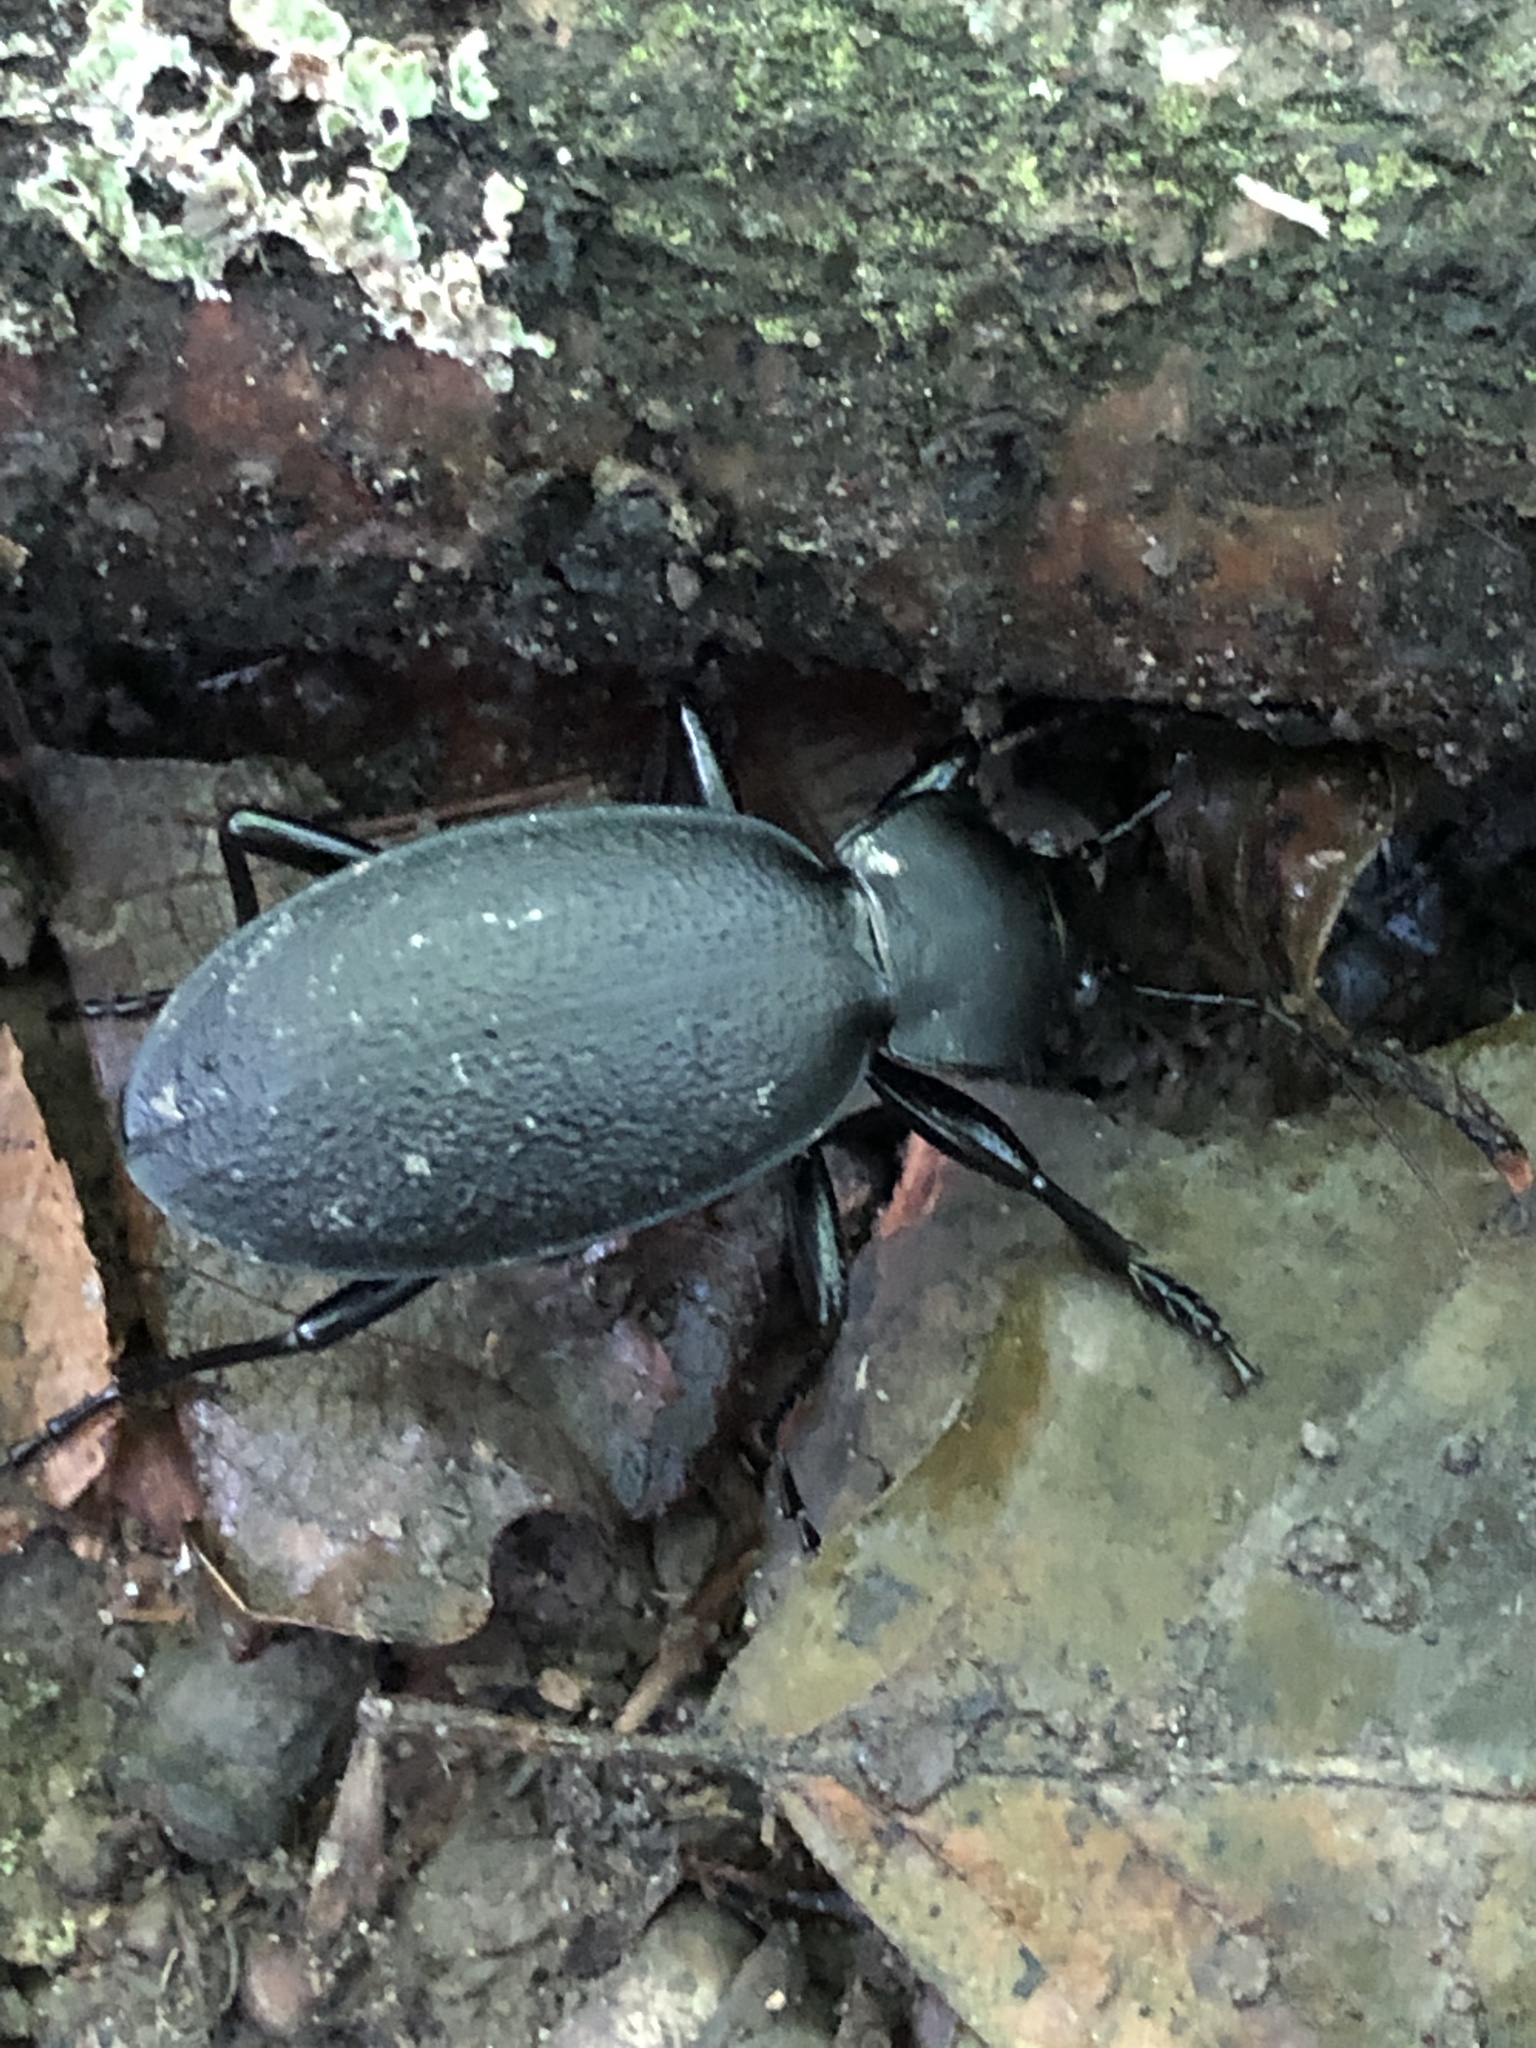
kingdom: Animalia
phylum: Arthropoda
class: Insecta
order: Coleoptera
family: Carabidae
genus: Carabus
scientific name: Carabus coriaceus
